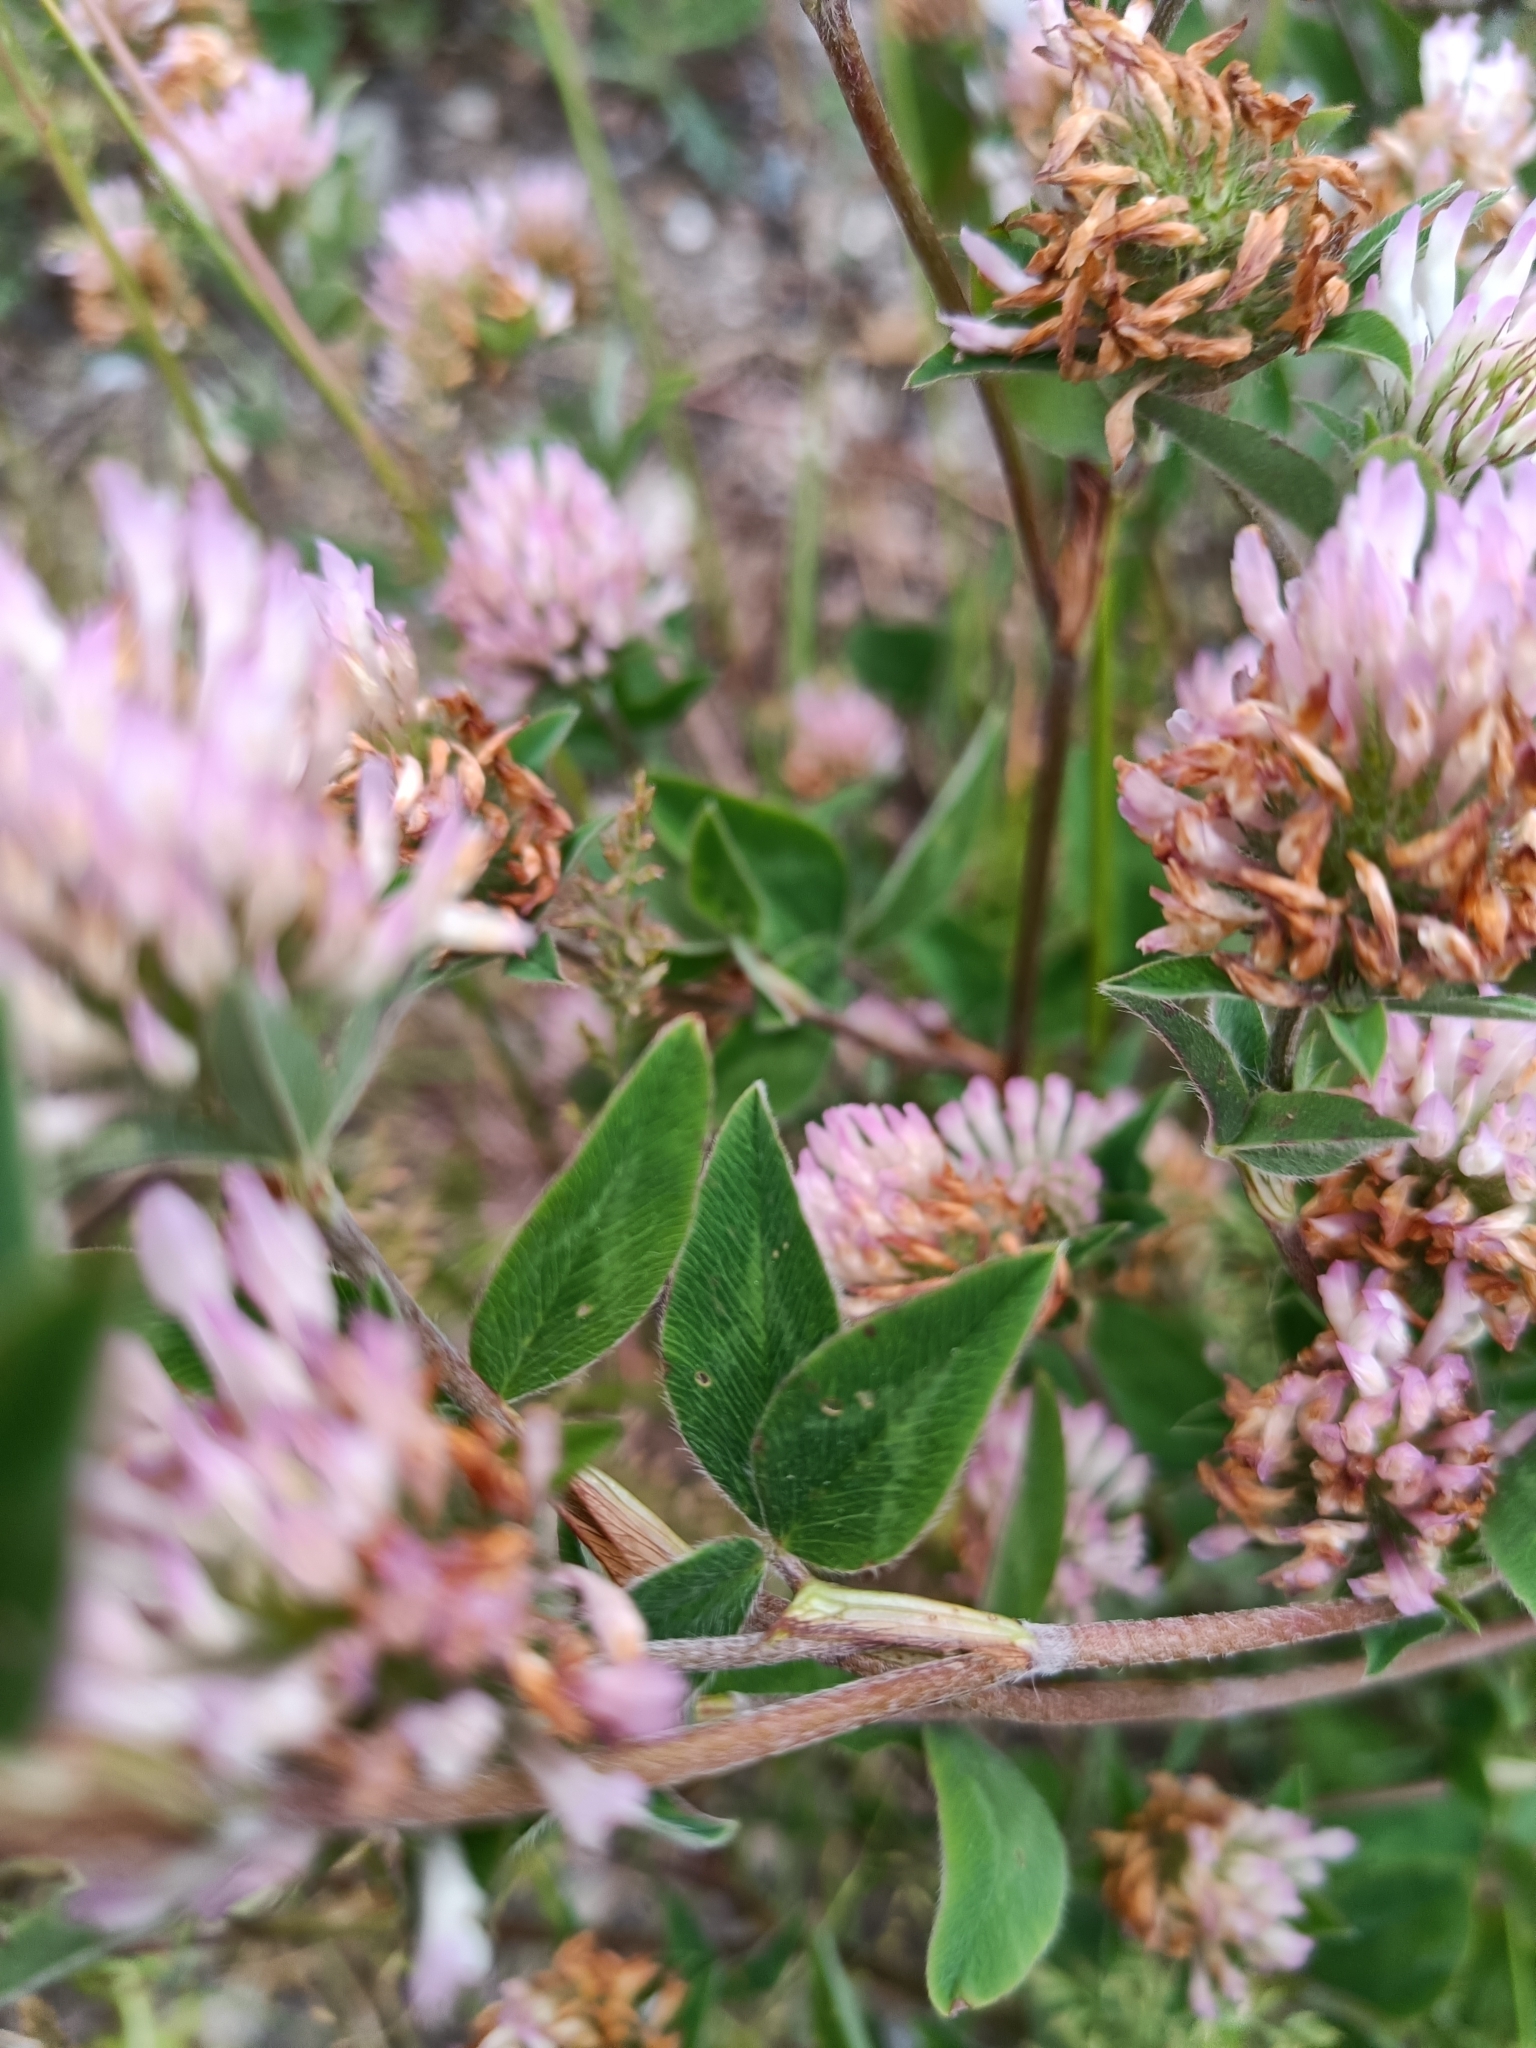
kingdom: Plantae
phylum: Tracheophyta
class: Magnoliopsida
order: Fabales
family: Fabaceae
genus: Trifolium
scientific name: Trifolium pratense
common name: Red clover
